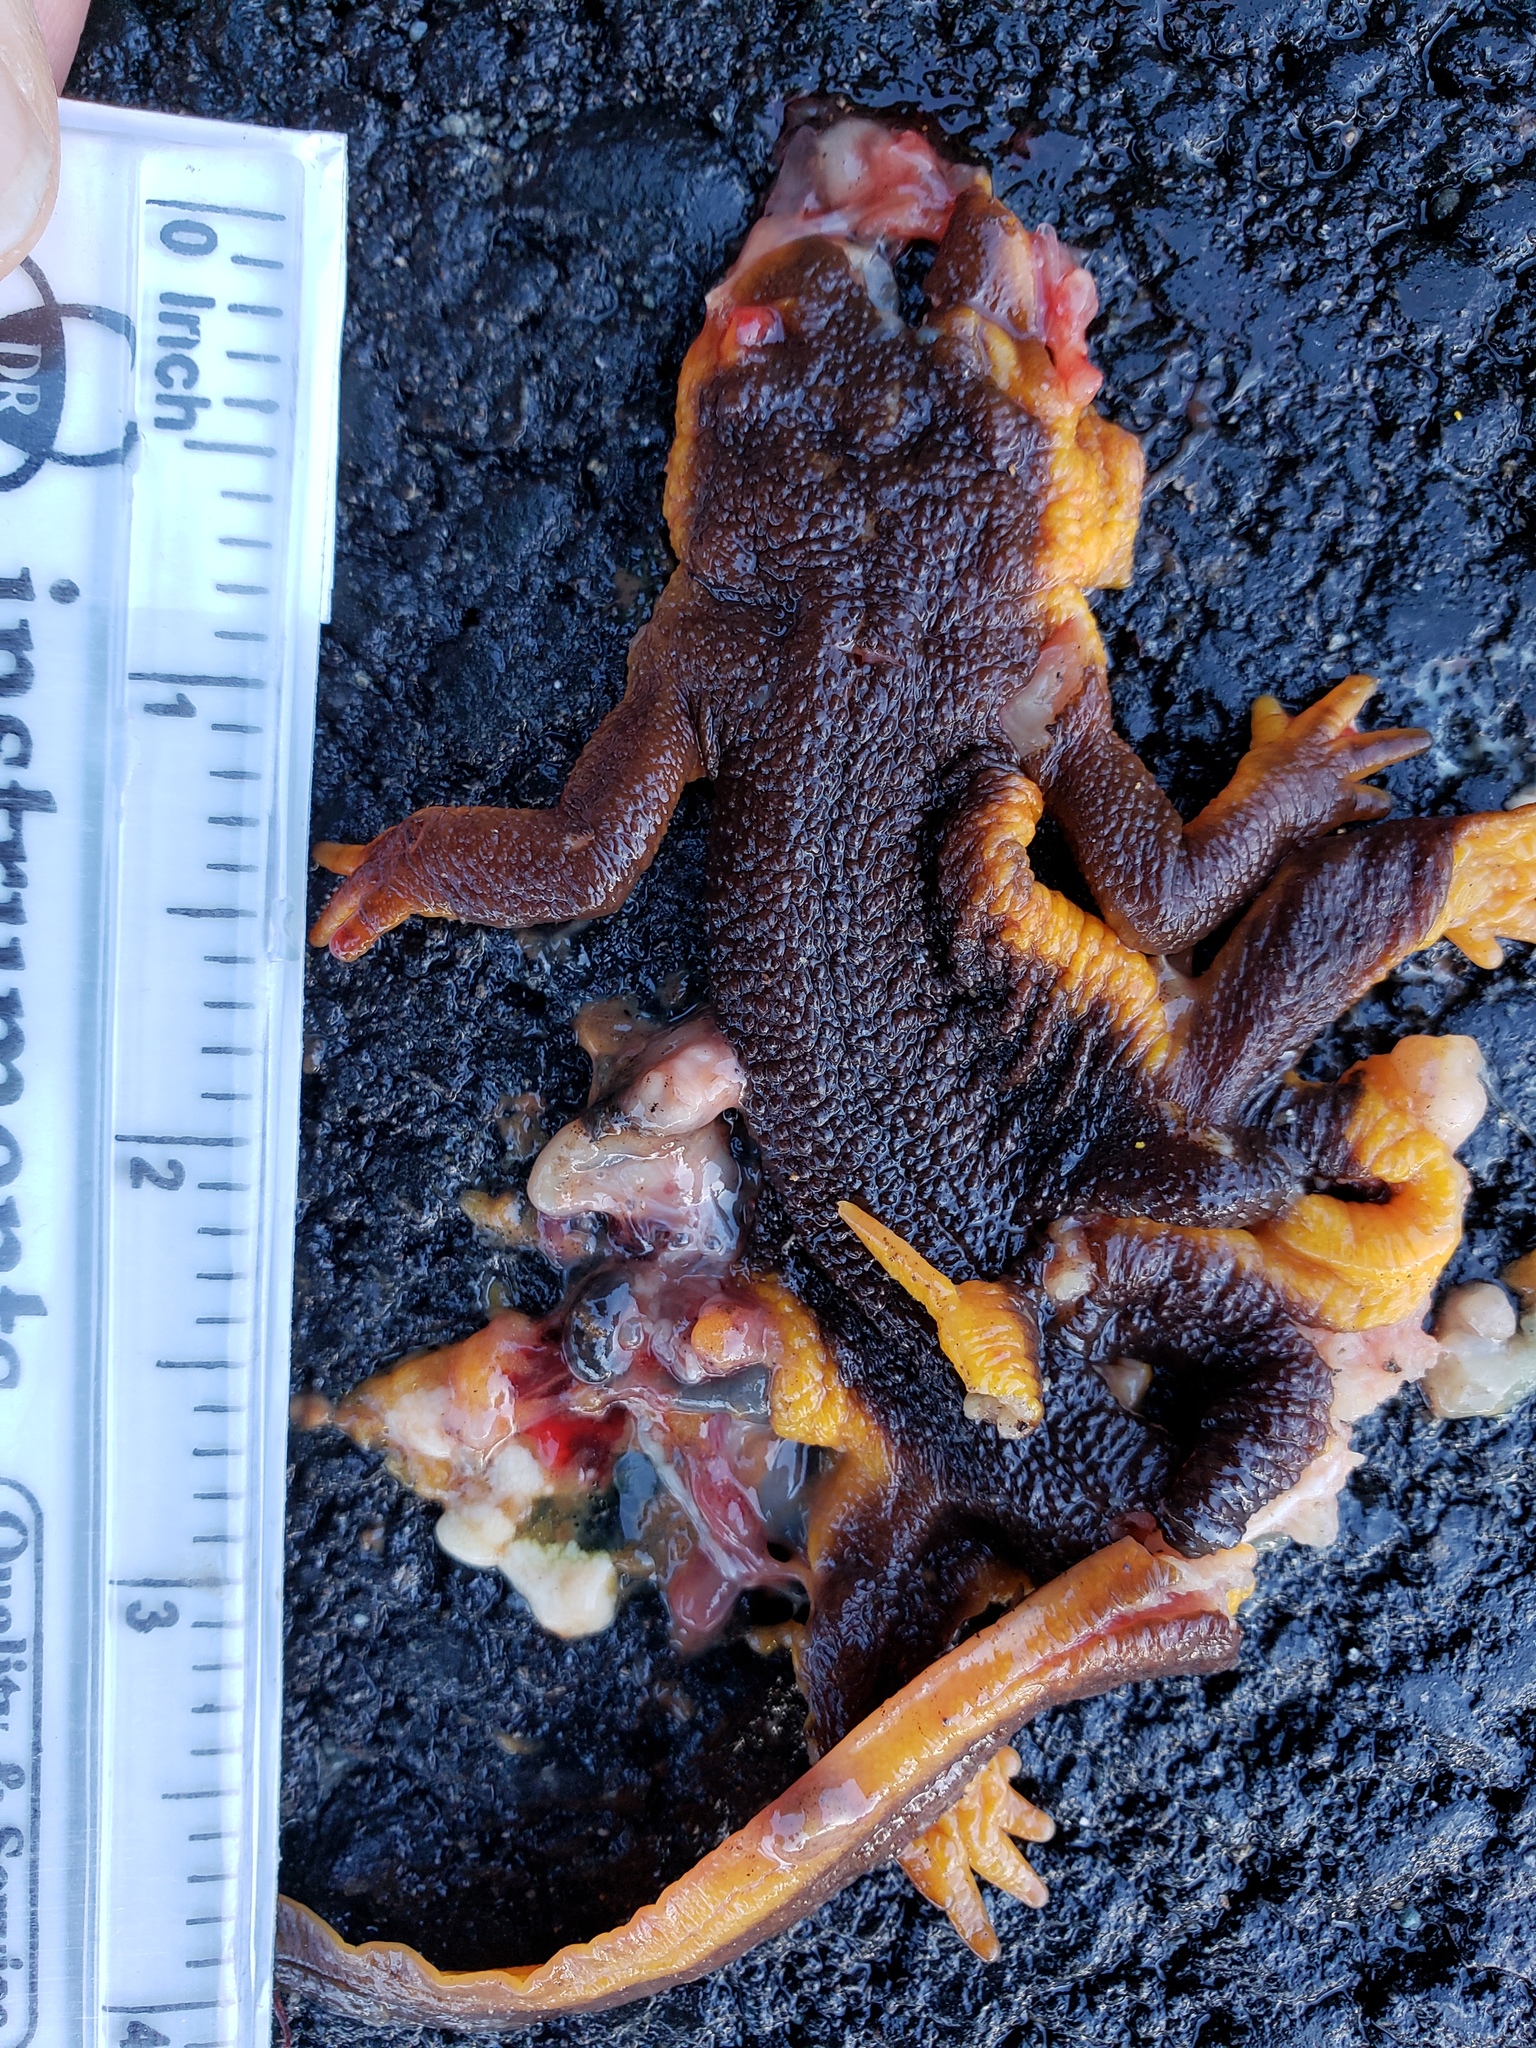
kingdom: Animalia
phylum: Chordata
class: Amphibia
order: Caudata
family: Salamandridae
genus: Taricha
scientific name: Taricha
